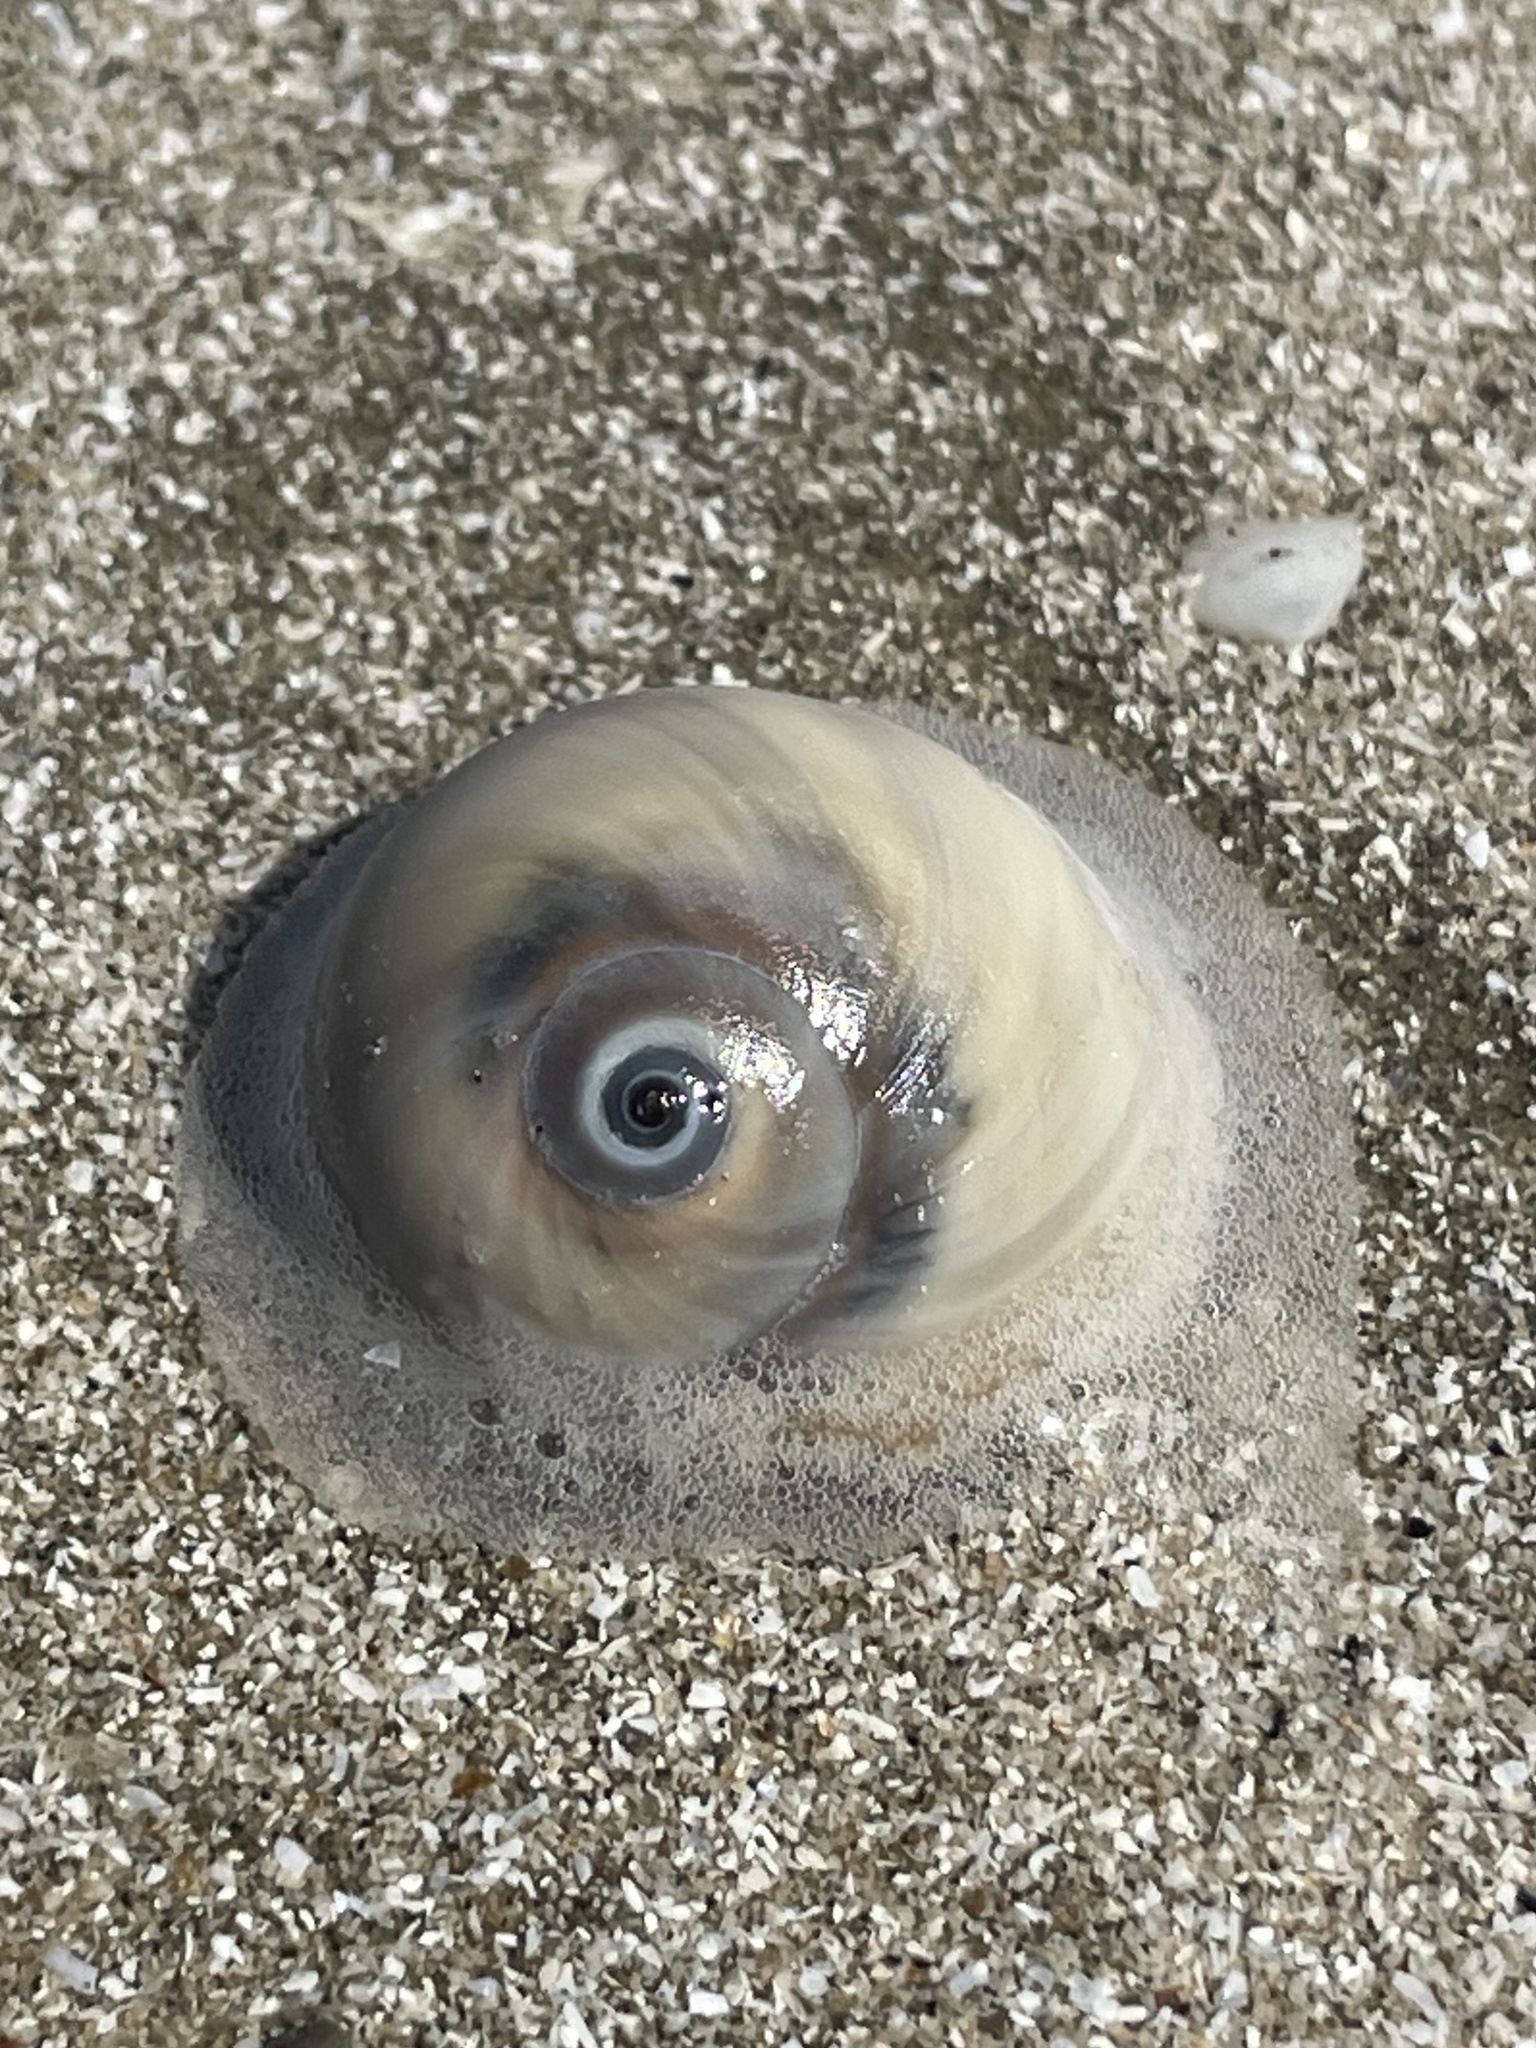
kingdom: Animalia
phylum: Mollusca
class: Gastropoda
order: Littorinimorpha
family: Naticidae
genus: Neverita
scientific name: Neverita duplicata
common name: Lobed moonsnail
